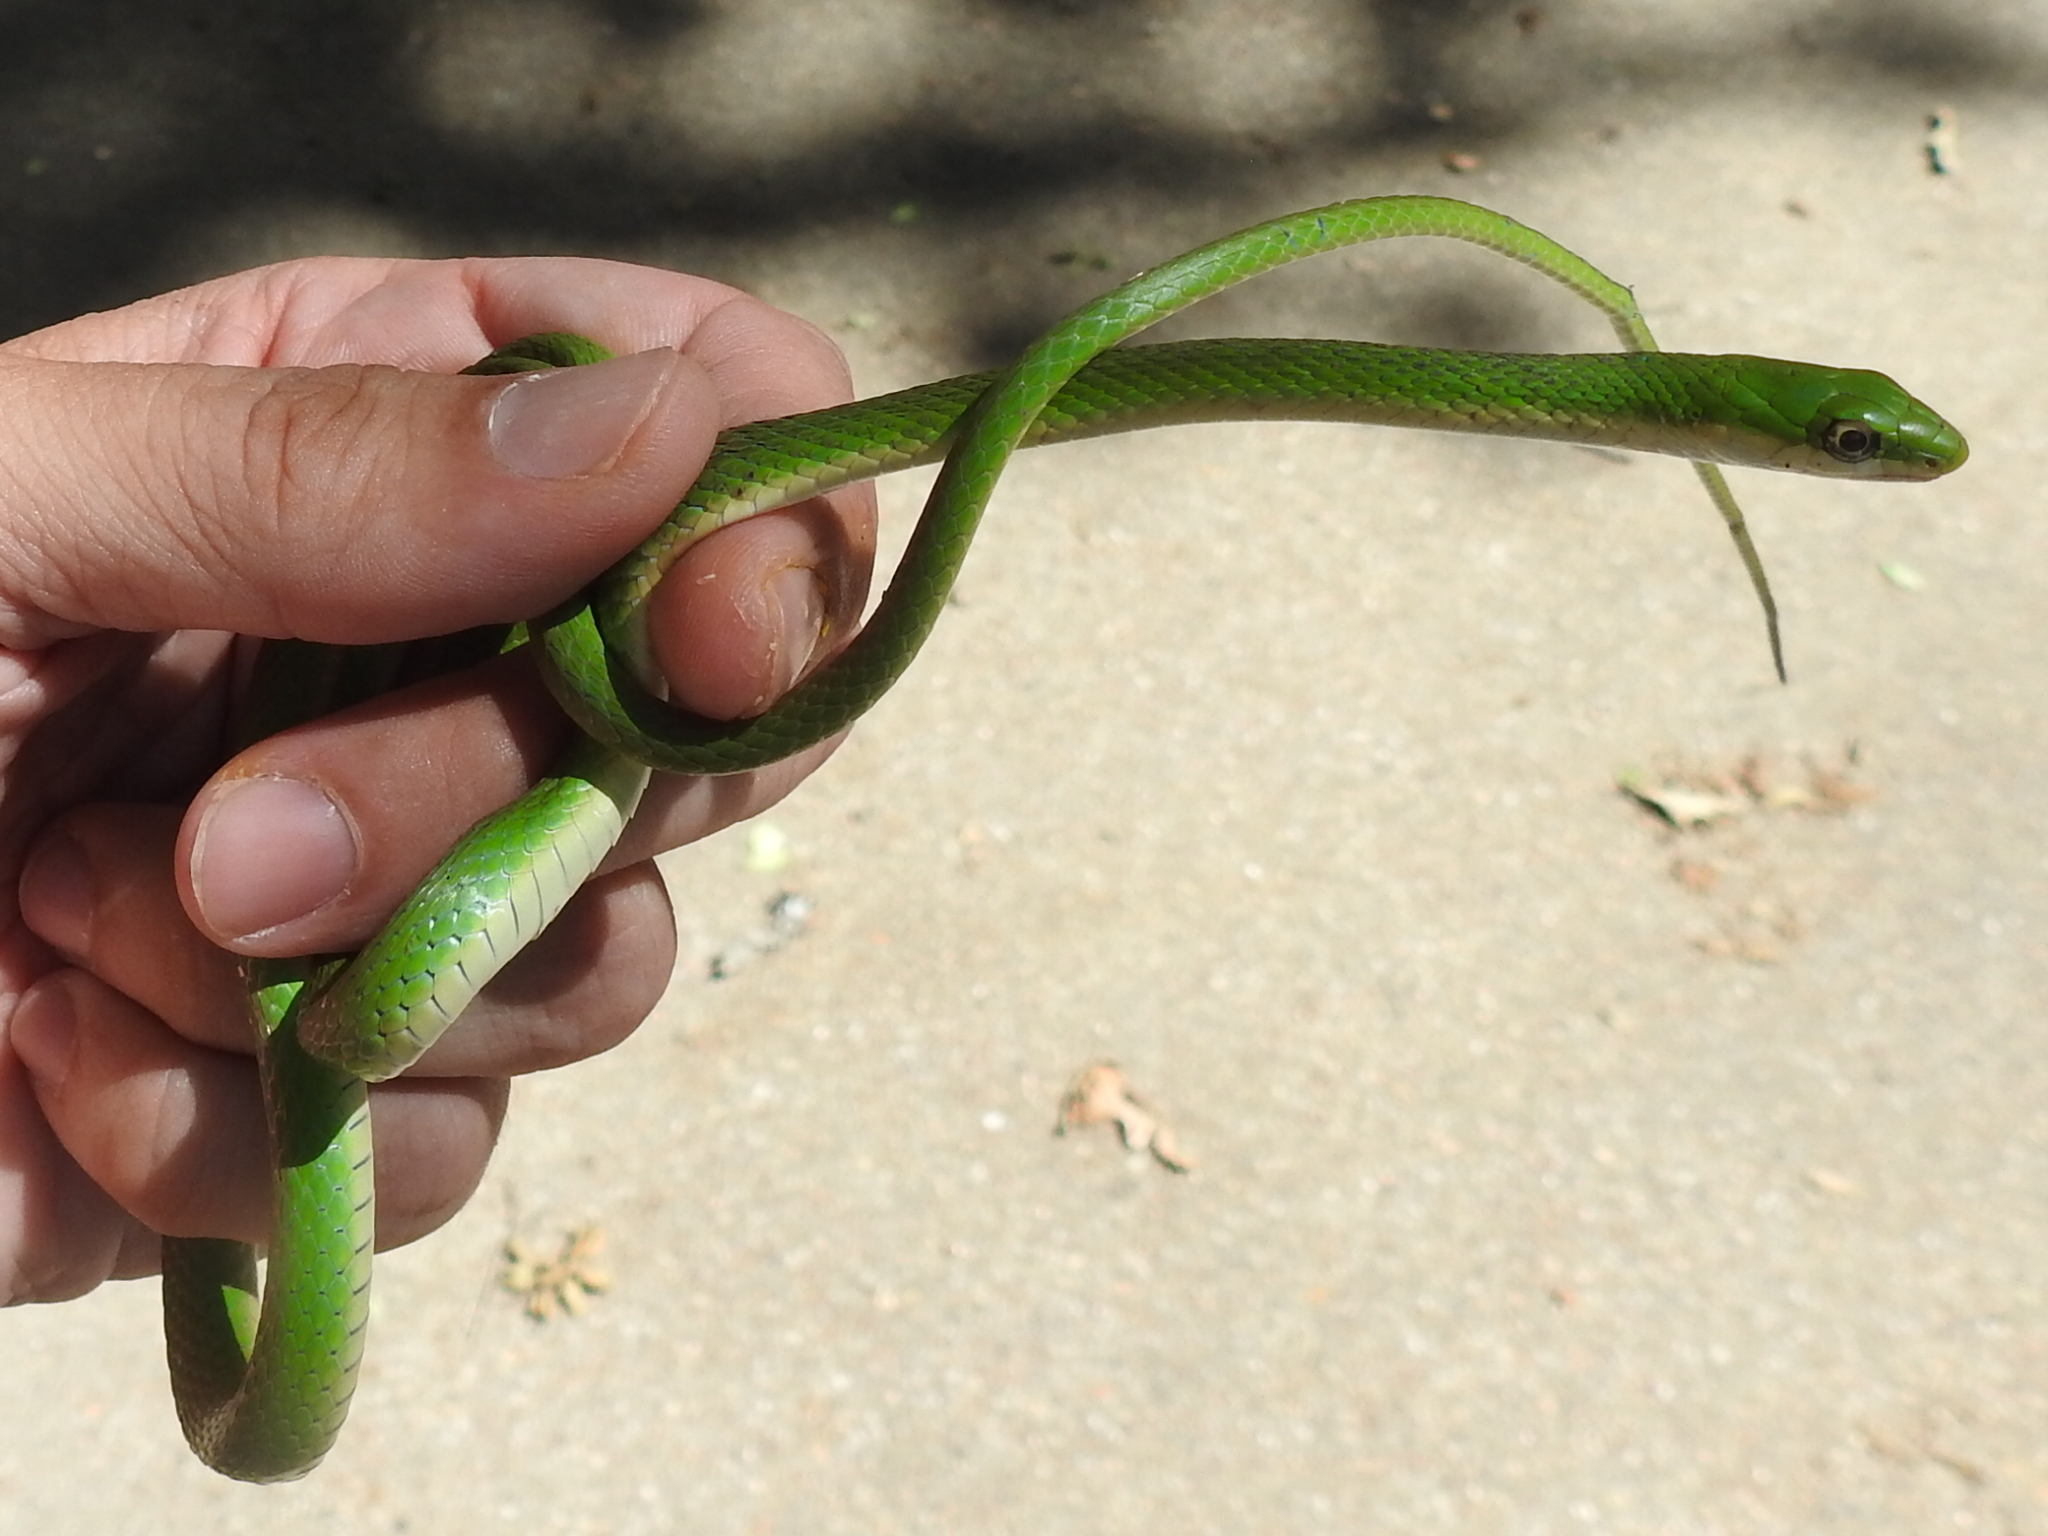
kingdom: Animalia
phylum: Chordata
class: Squamata
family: Colubridae
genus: Opheodrys
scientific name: Opheodrys aestivus
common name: Rough greensnake
